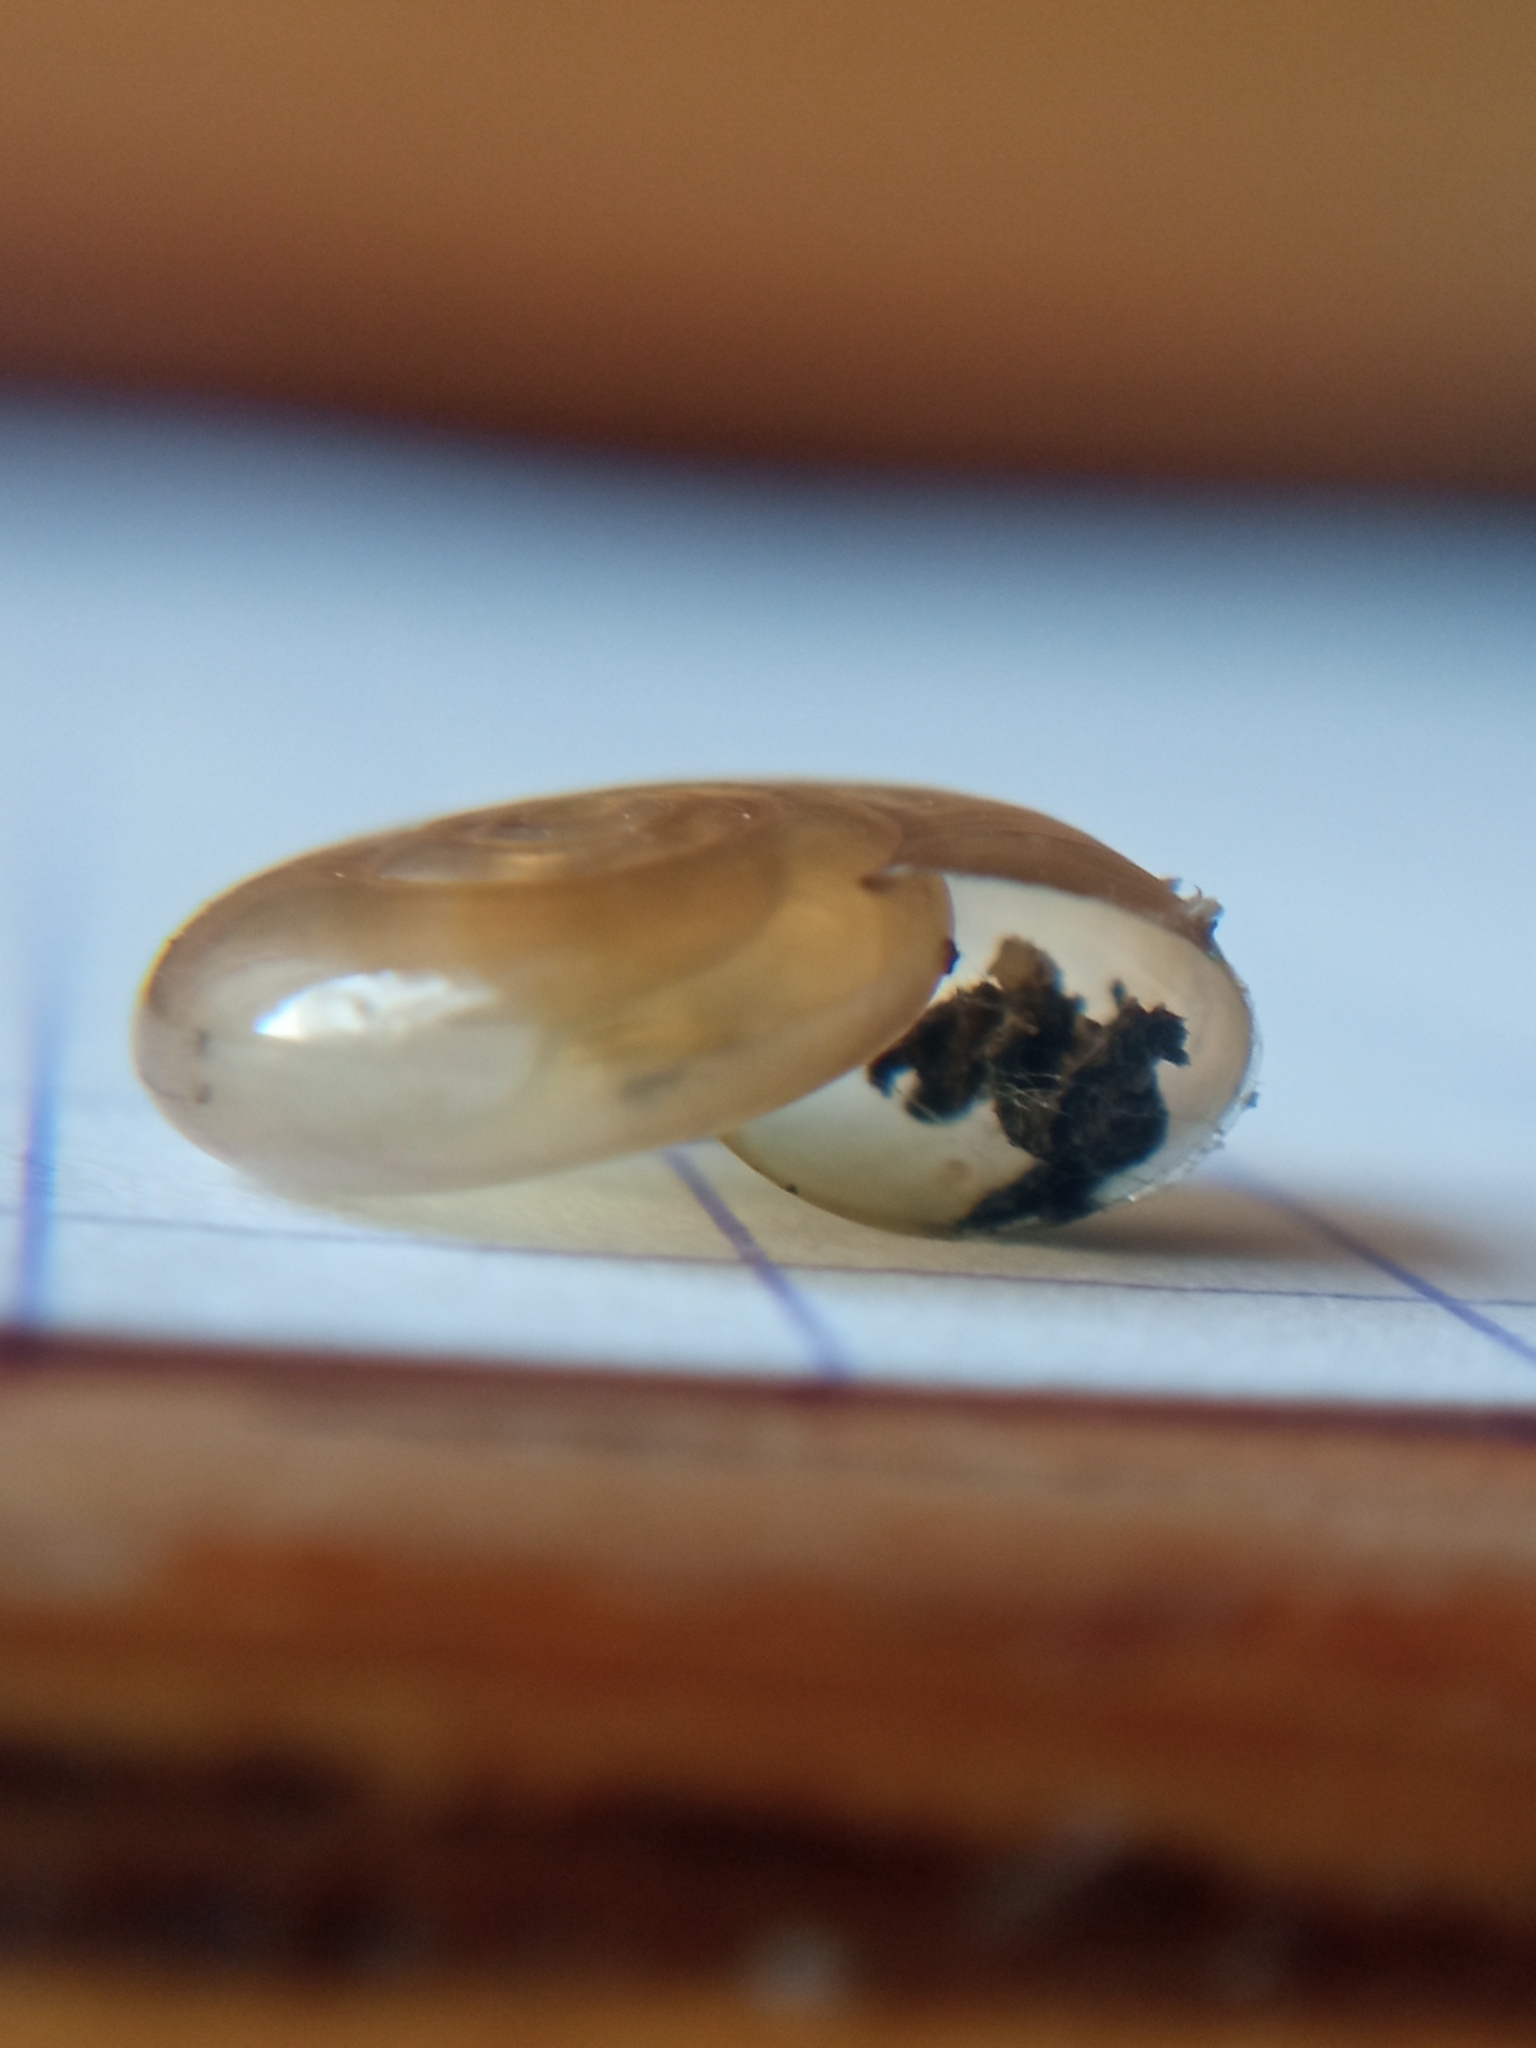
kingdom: Animalia
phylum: Mollusca
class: Gastropoda
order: Stylommatophora
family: Oxychilidae
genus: Oxychilus
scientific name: Oxychilus draparnaudi
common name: Draparnaud's glass snail
